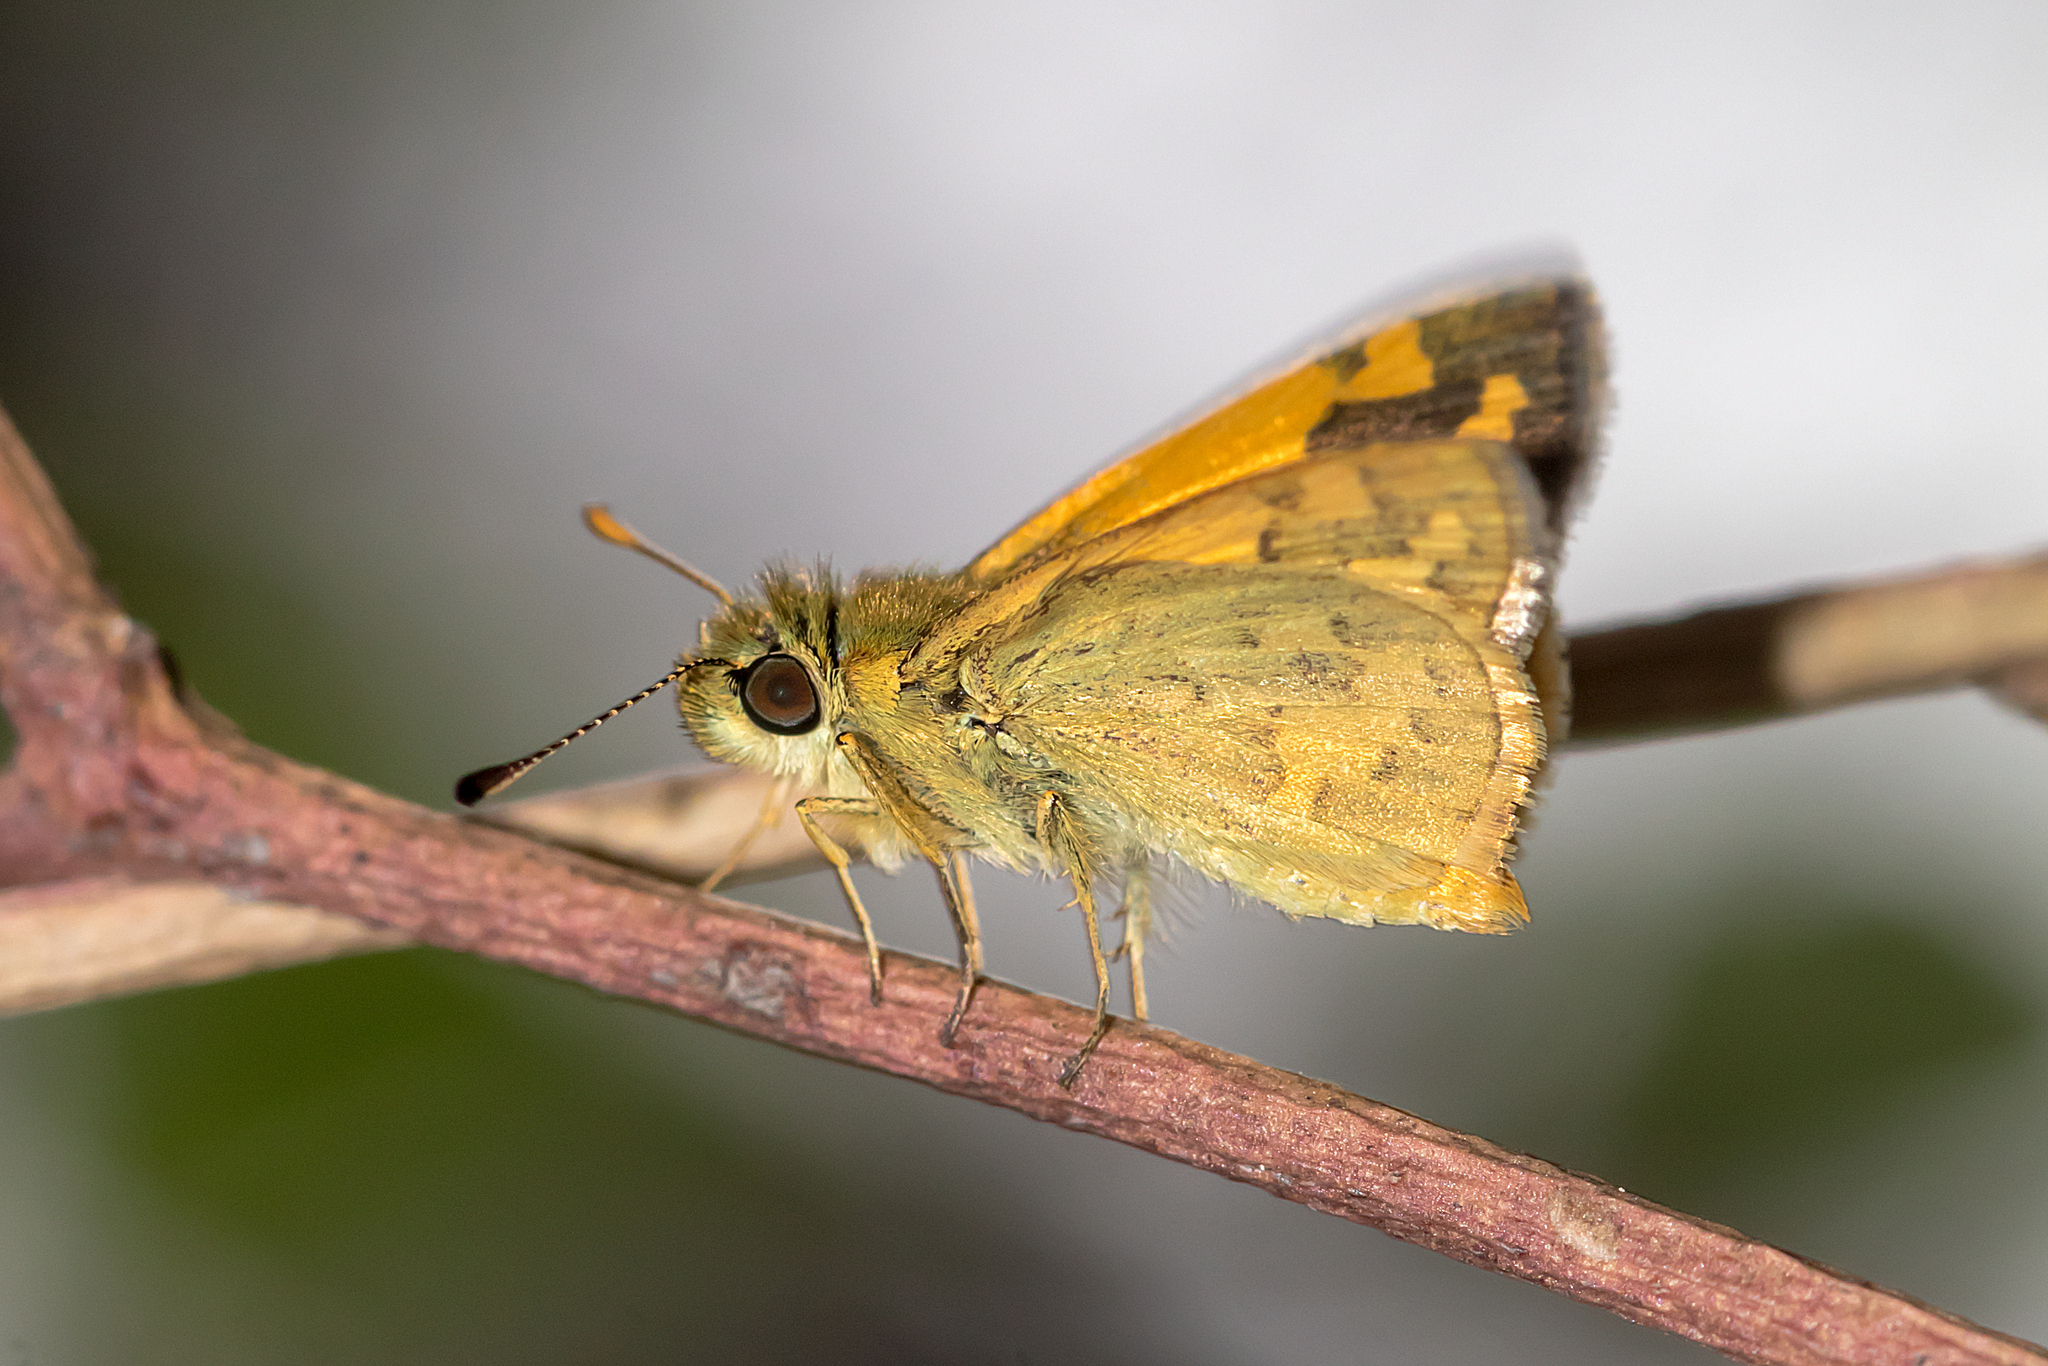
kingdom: Animalia
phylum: Arthropoda
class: Insecta
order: Lepidoptera
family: Hesperiidae
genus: Ocybadistes
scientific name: Ocybadistes walkeri
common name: Yellow-banded dart
